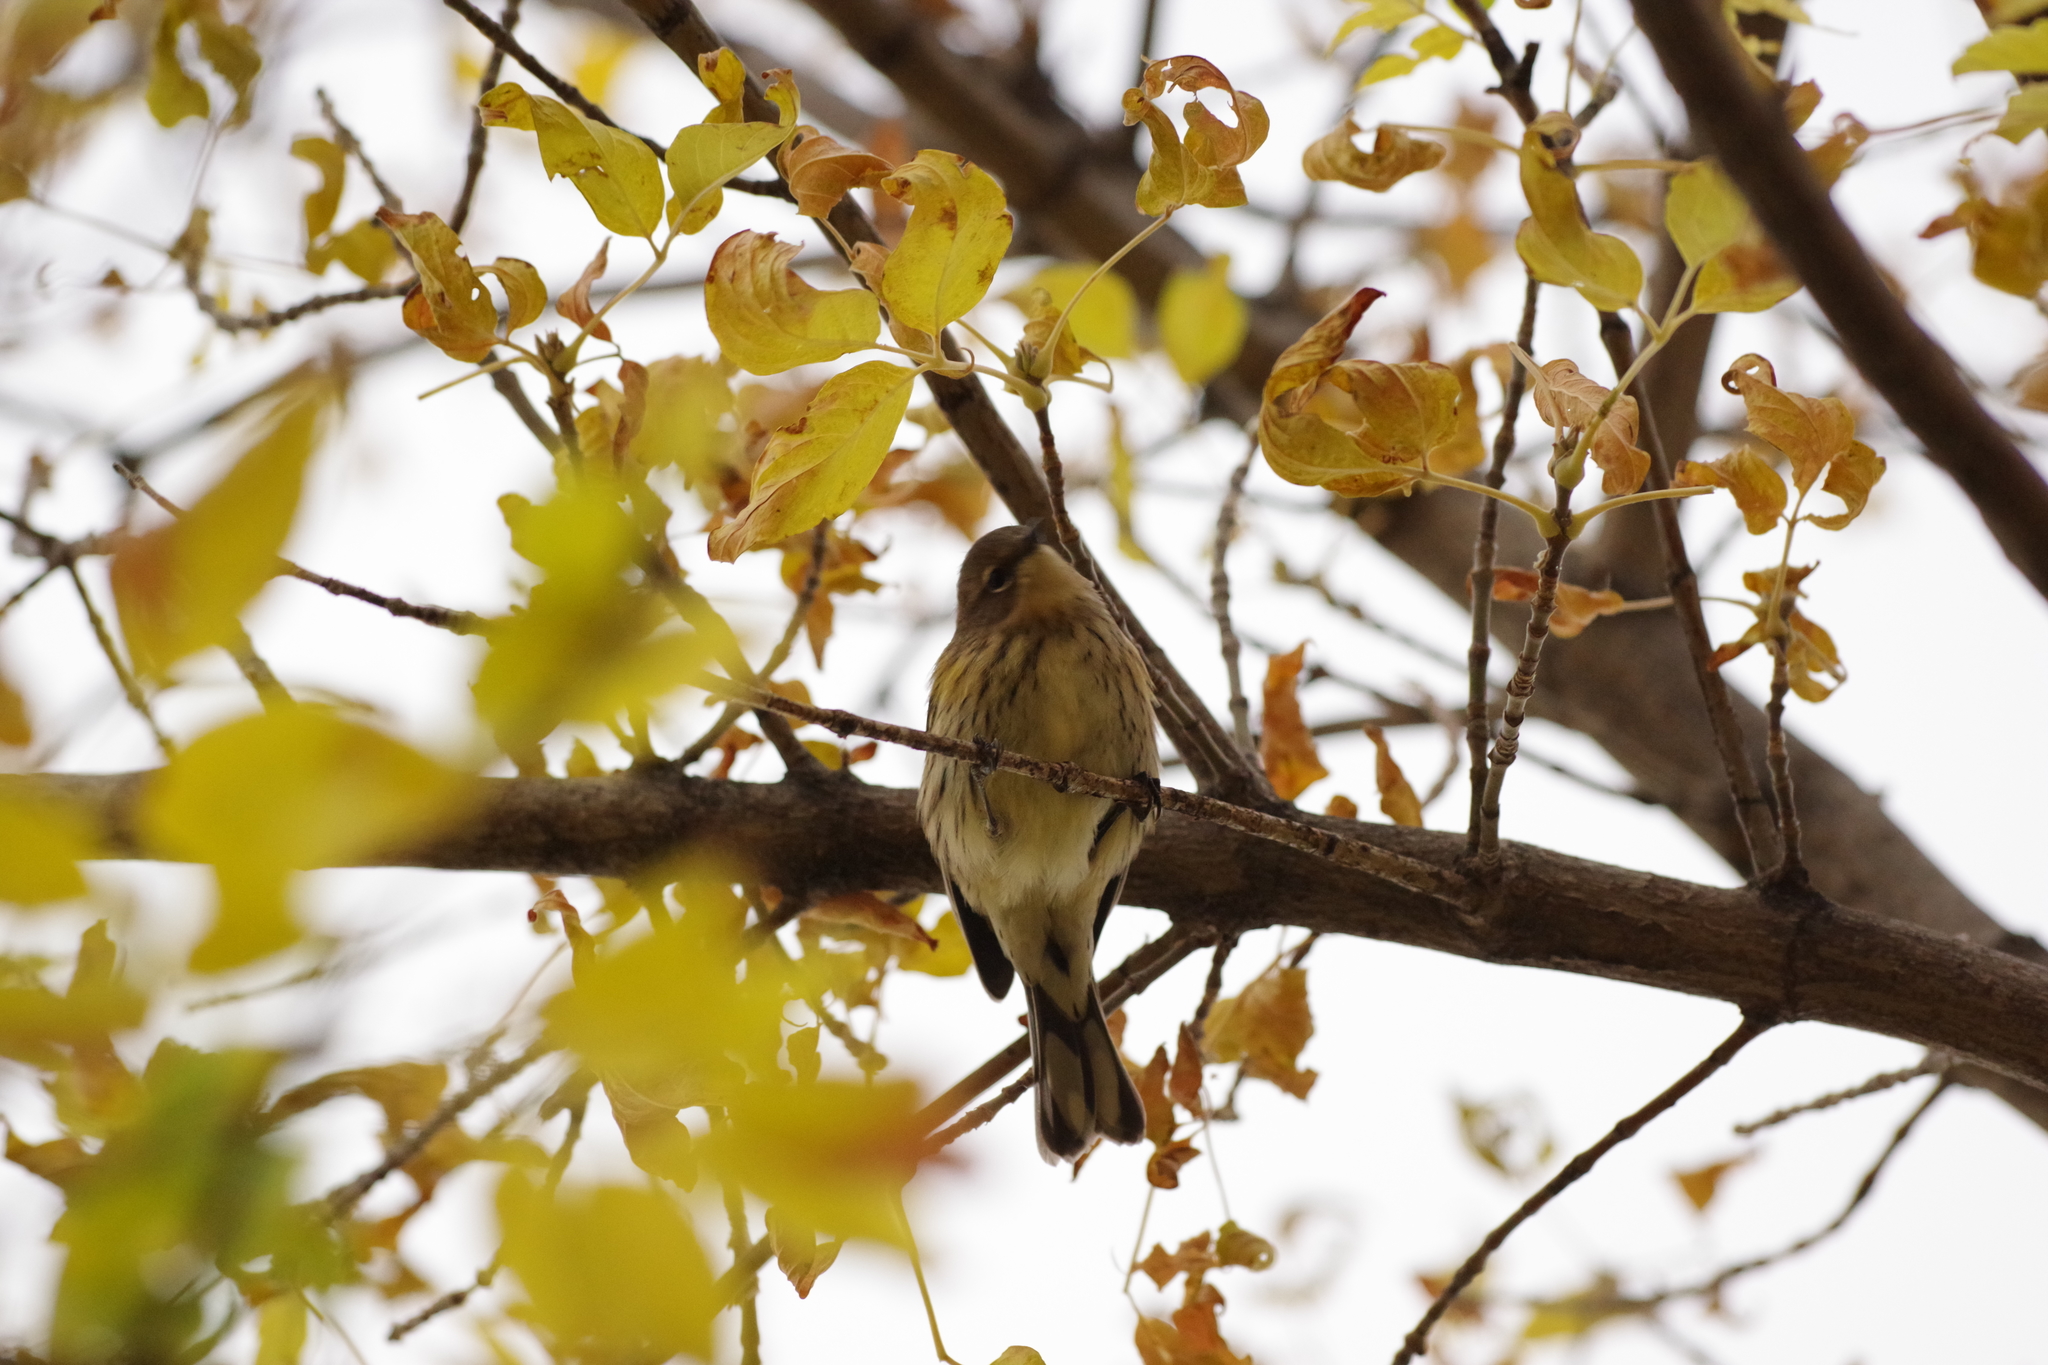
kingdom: Animalia
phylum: Chordata
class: Aves
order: Passeriformes
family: Parulidae
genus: Setophaga
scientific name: Setophaga coronata
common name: Myrtle warbler
